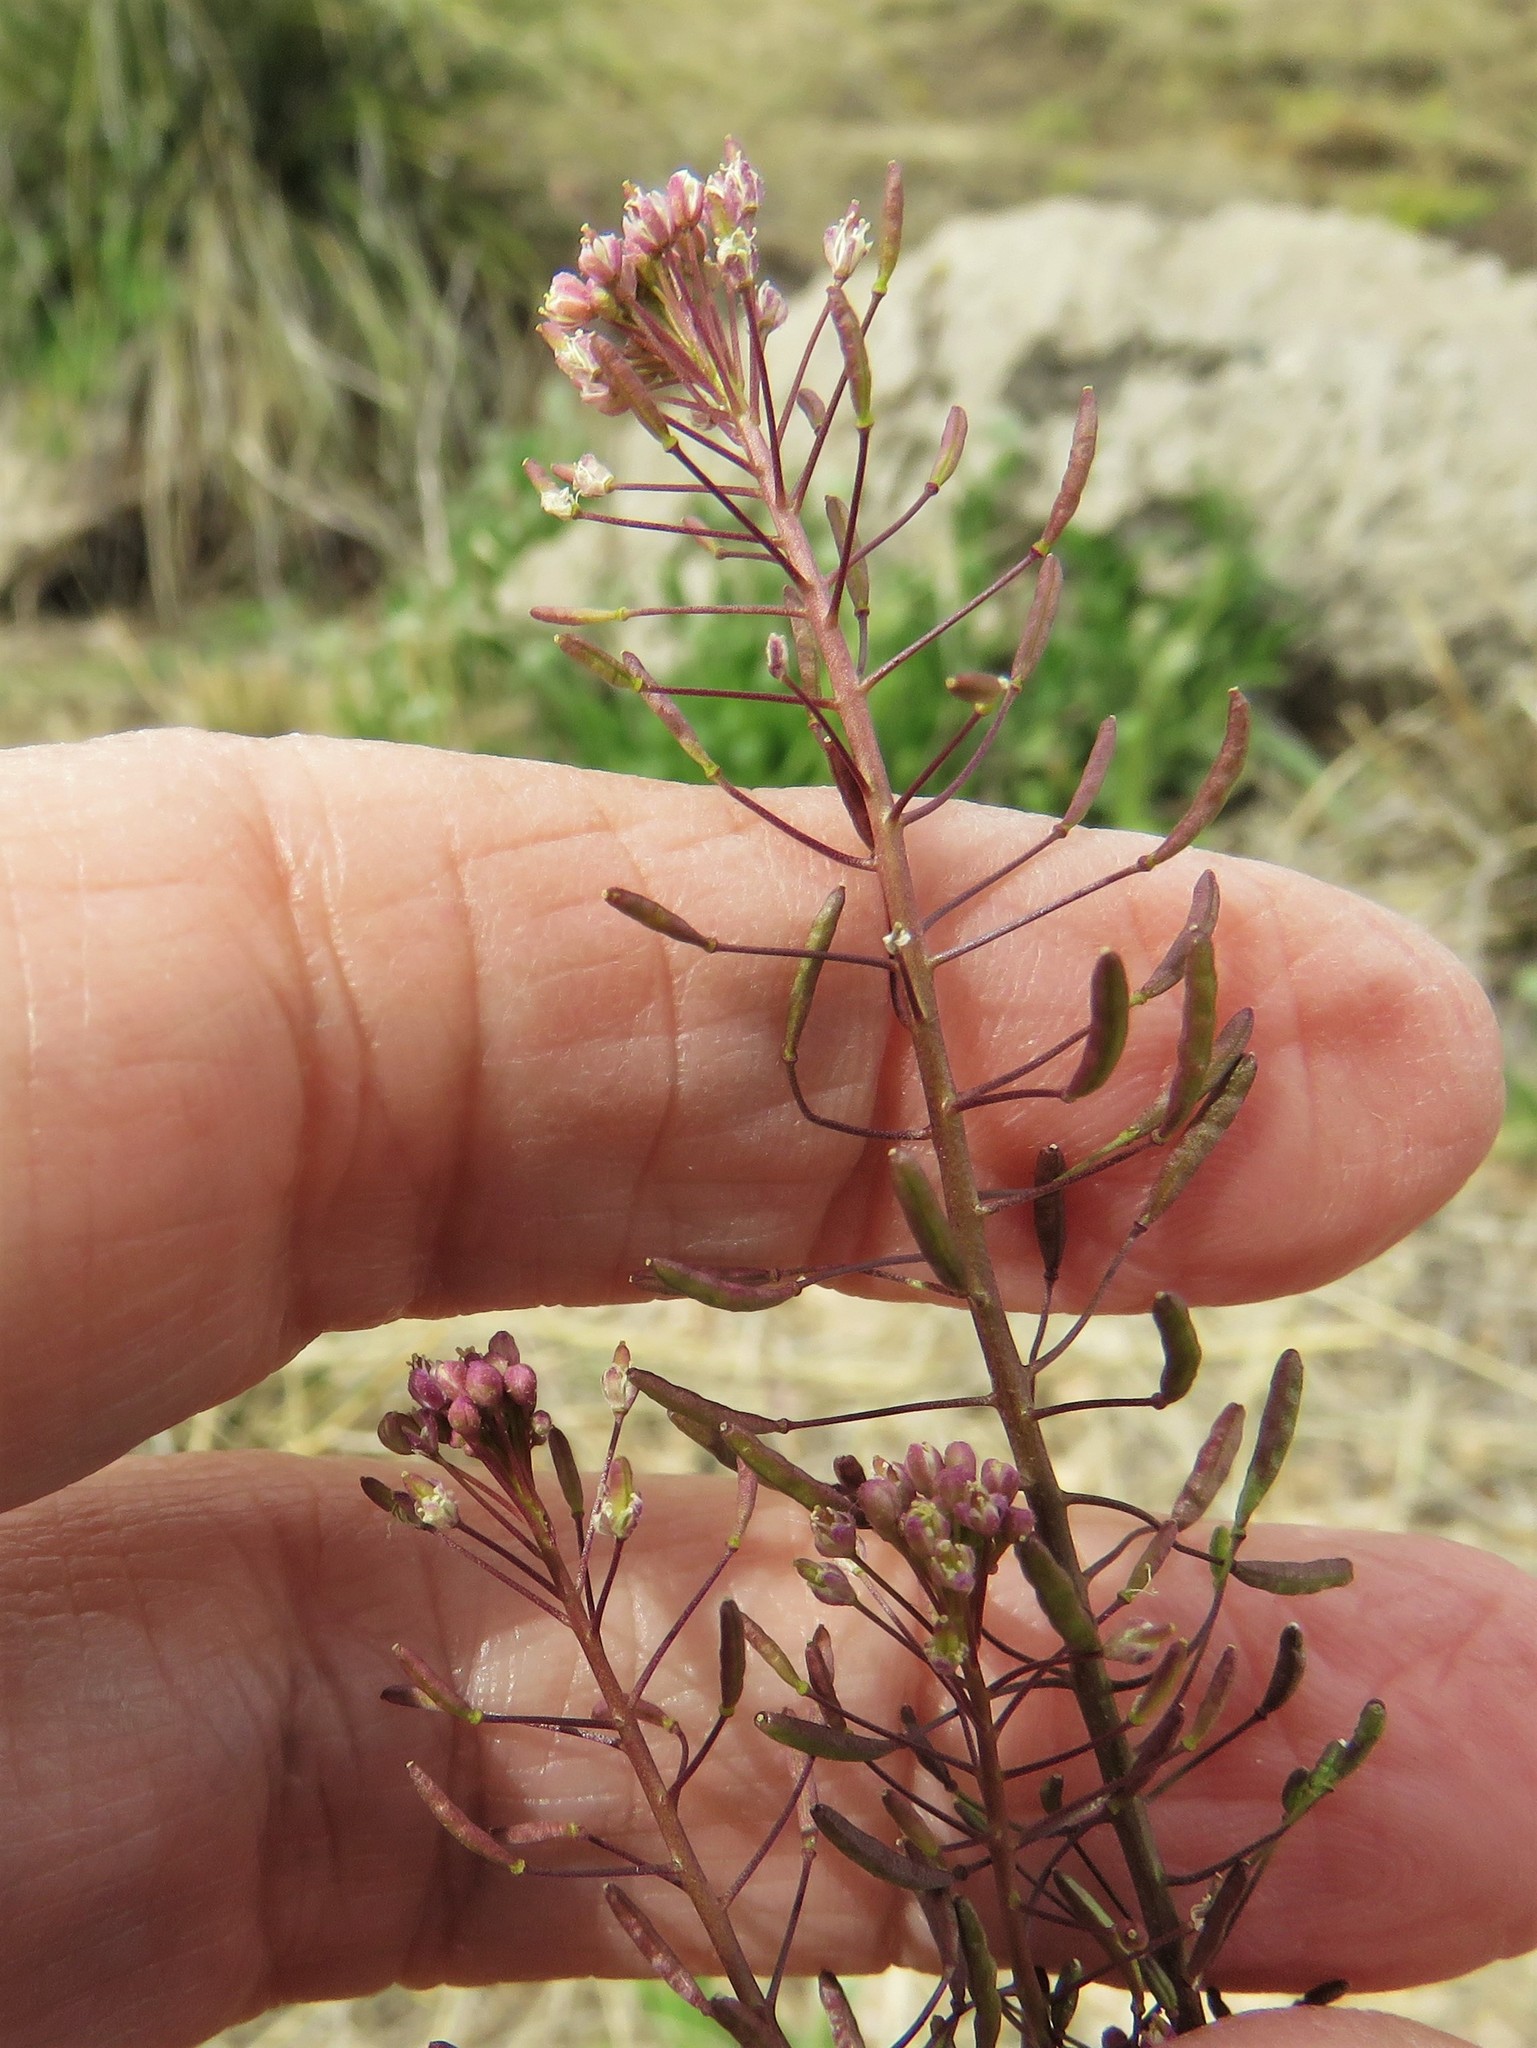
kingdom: Plantae
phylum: Tracheophyta
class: Magnoliopsida
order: Brassicales
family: Brassicaceae
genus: Descurainia
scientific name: Descurainia pinnata
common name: Western tansy mustard
